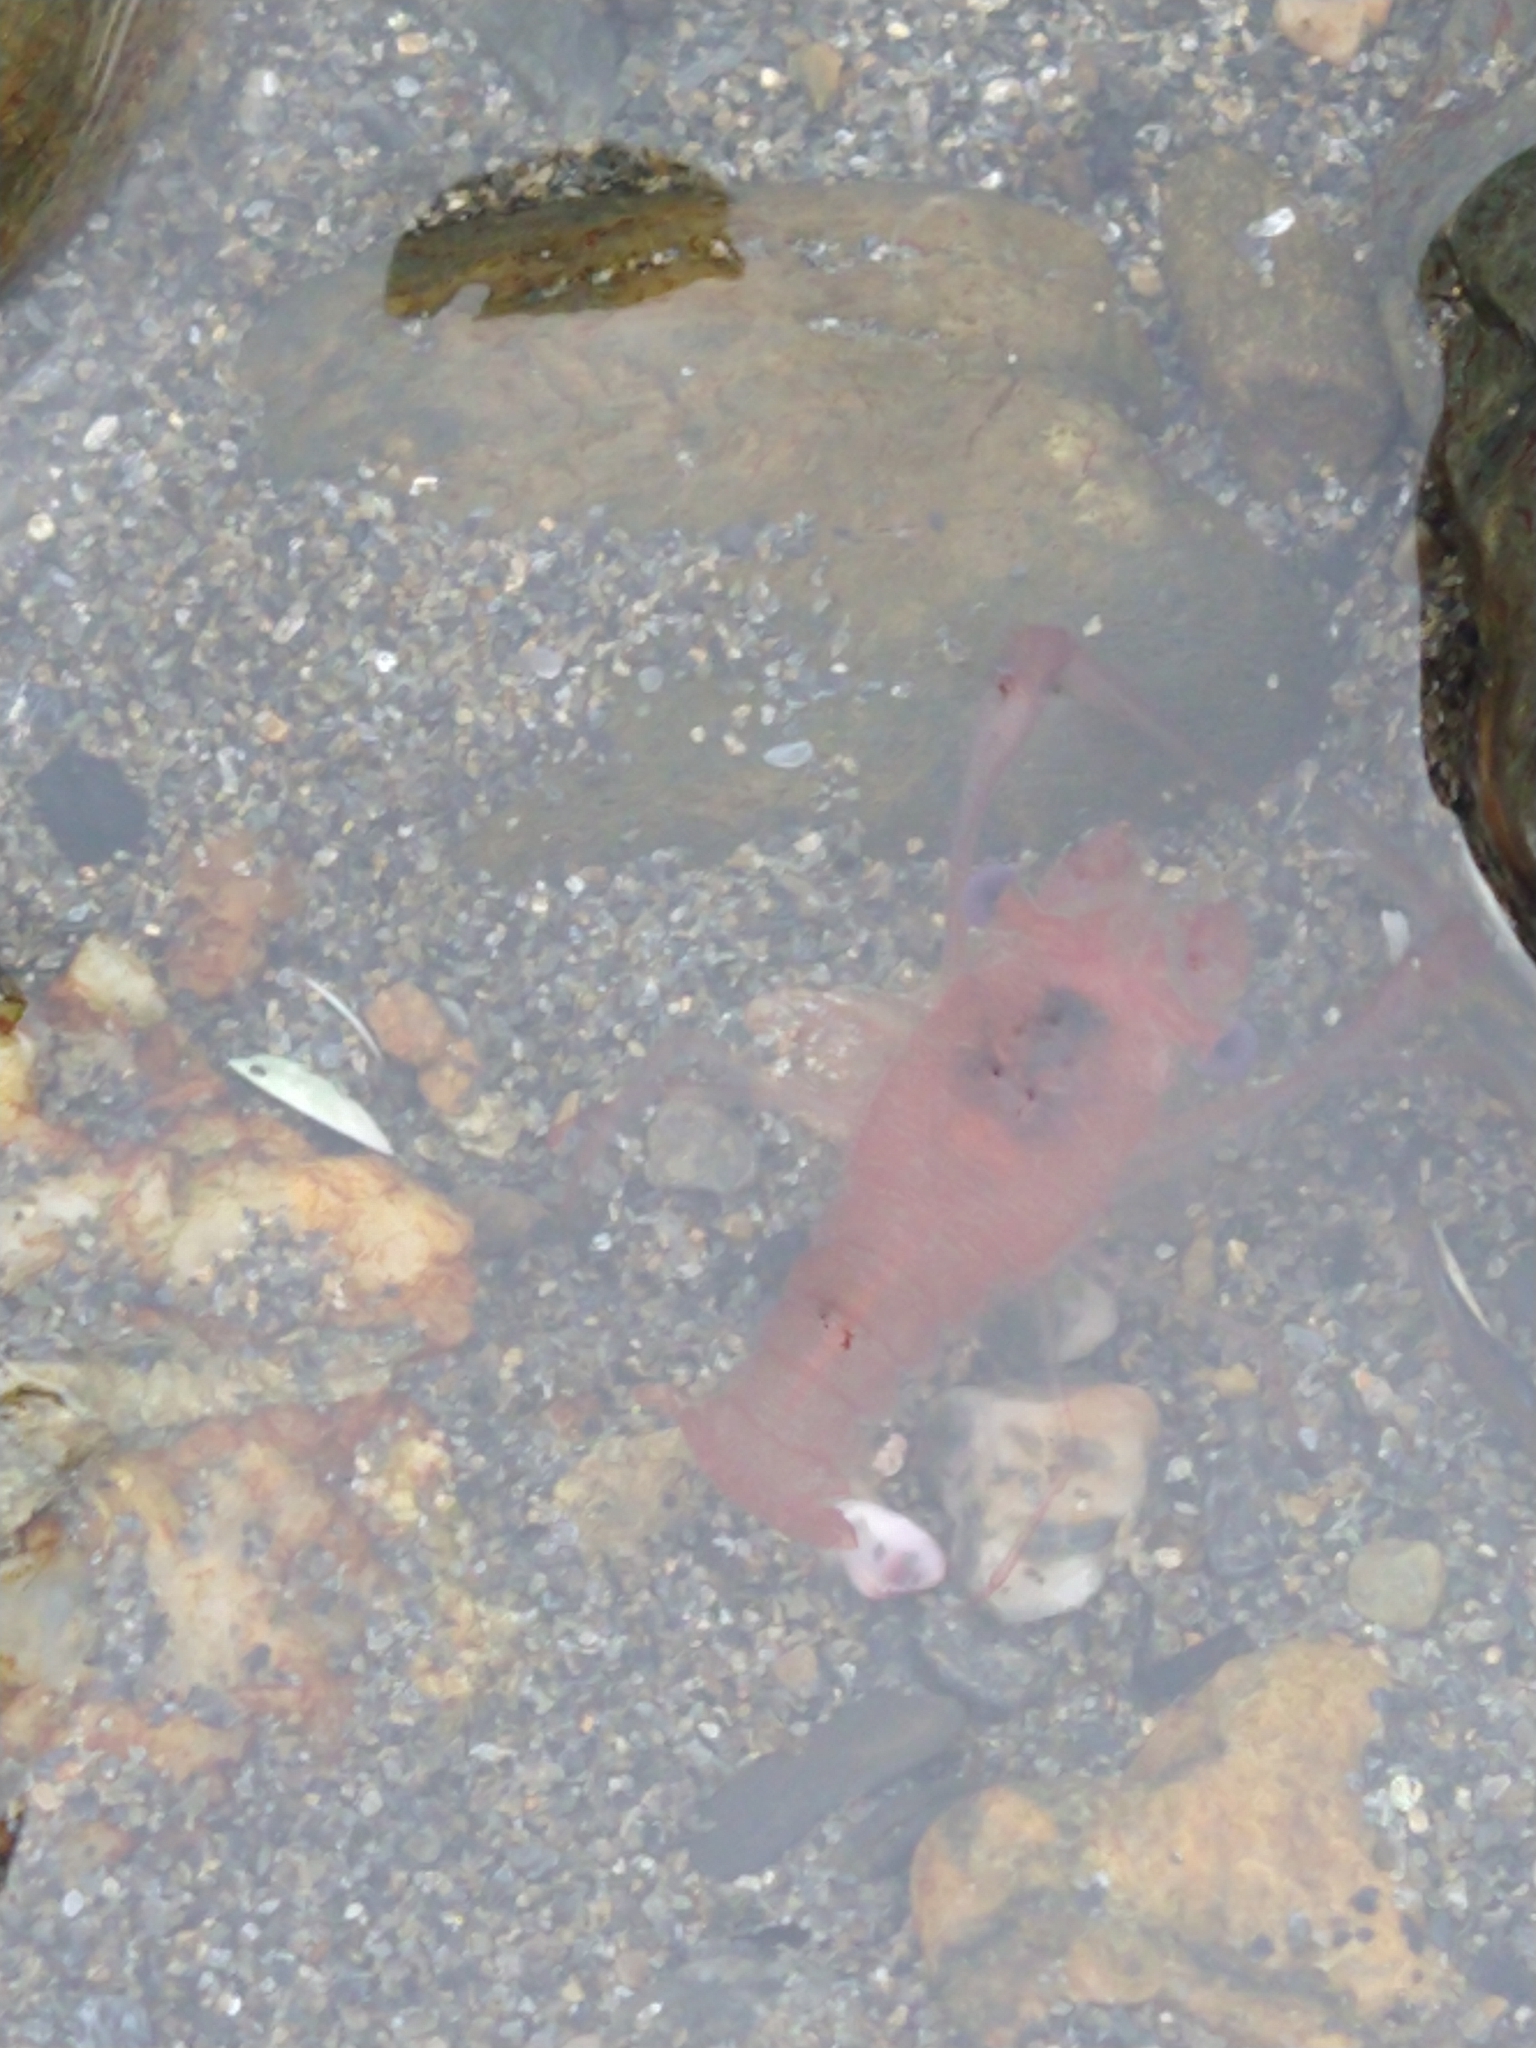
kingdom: Animalia
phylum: Arthropoda
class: Malacostraca
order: Decapoda
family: Munididae
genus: Grimothea
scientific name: Grimothea gregaria
